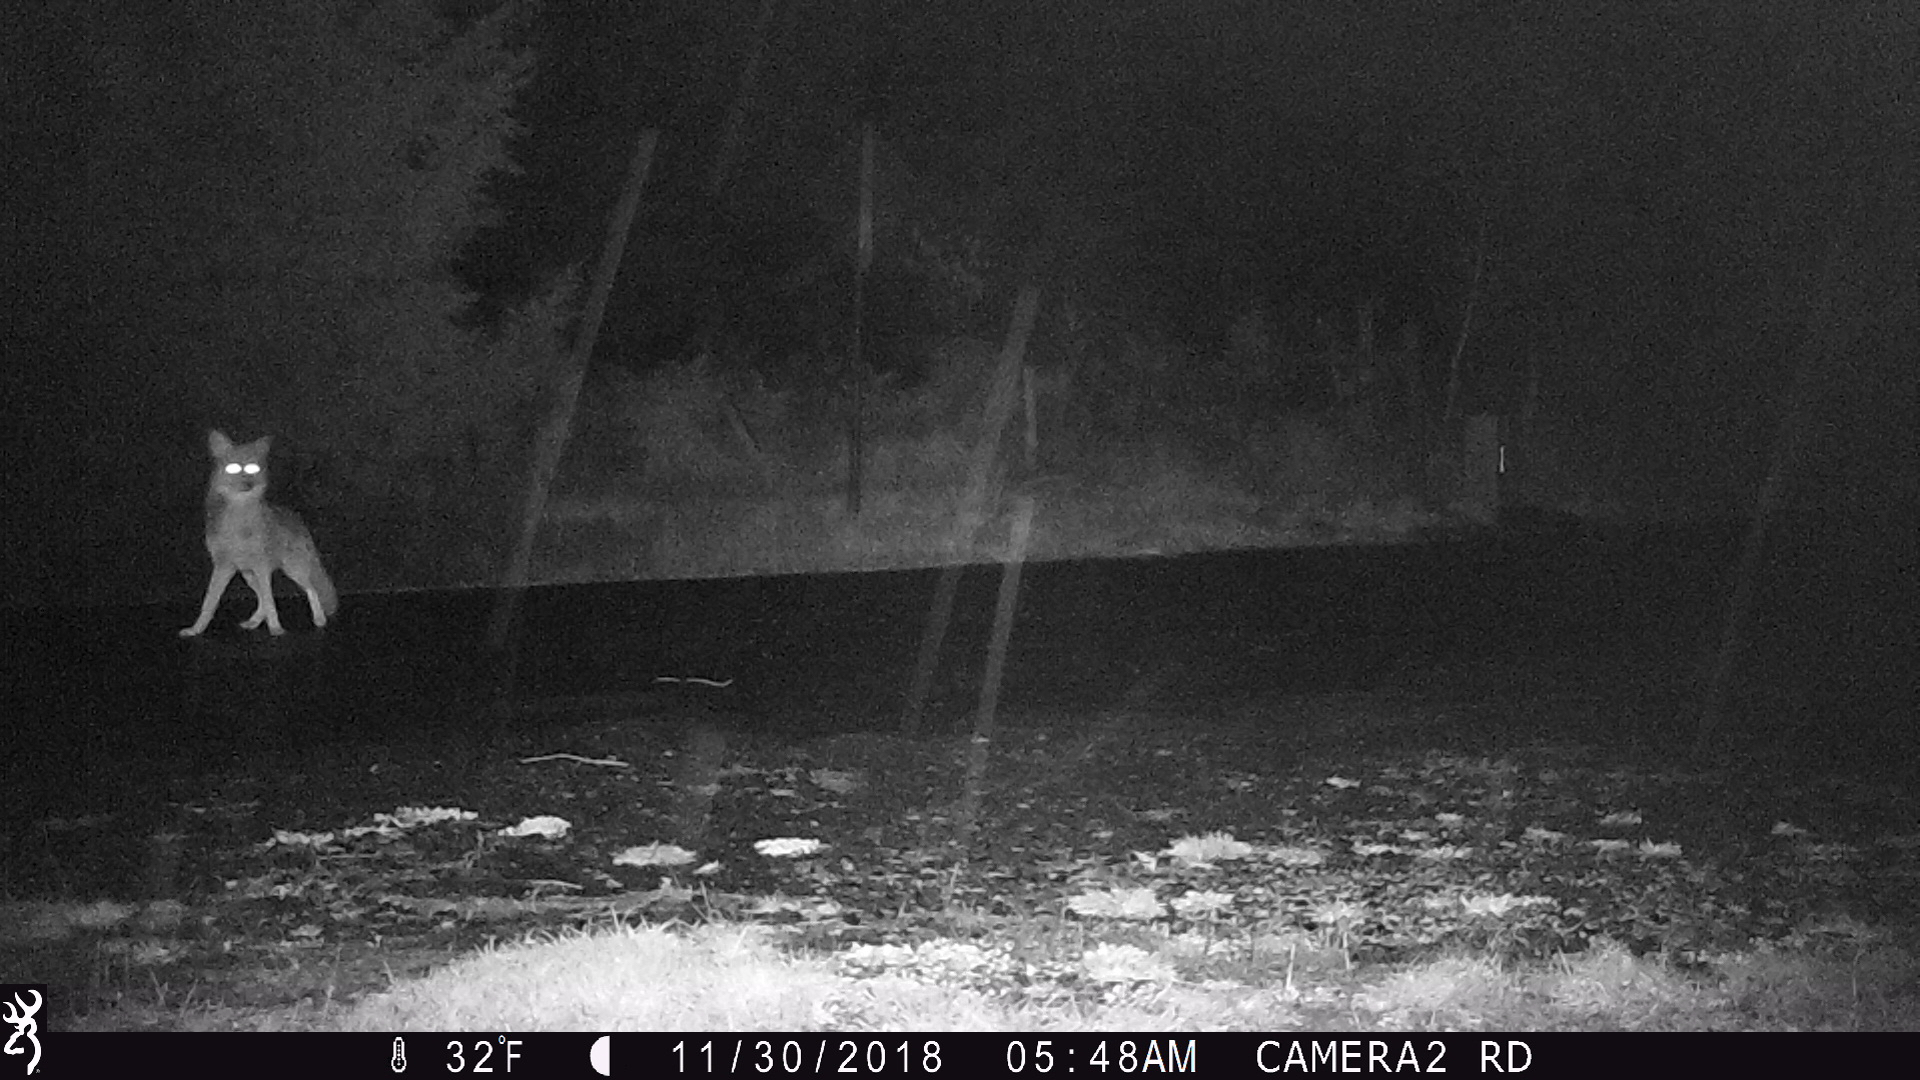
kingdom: Animalia
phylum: Chordata
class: Mammalia
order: Carnivora
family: Canidae
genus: Canis
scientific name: Canis latrans
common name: Coyote
